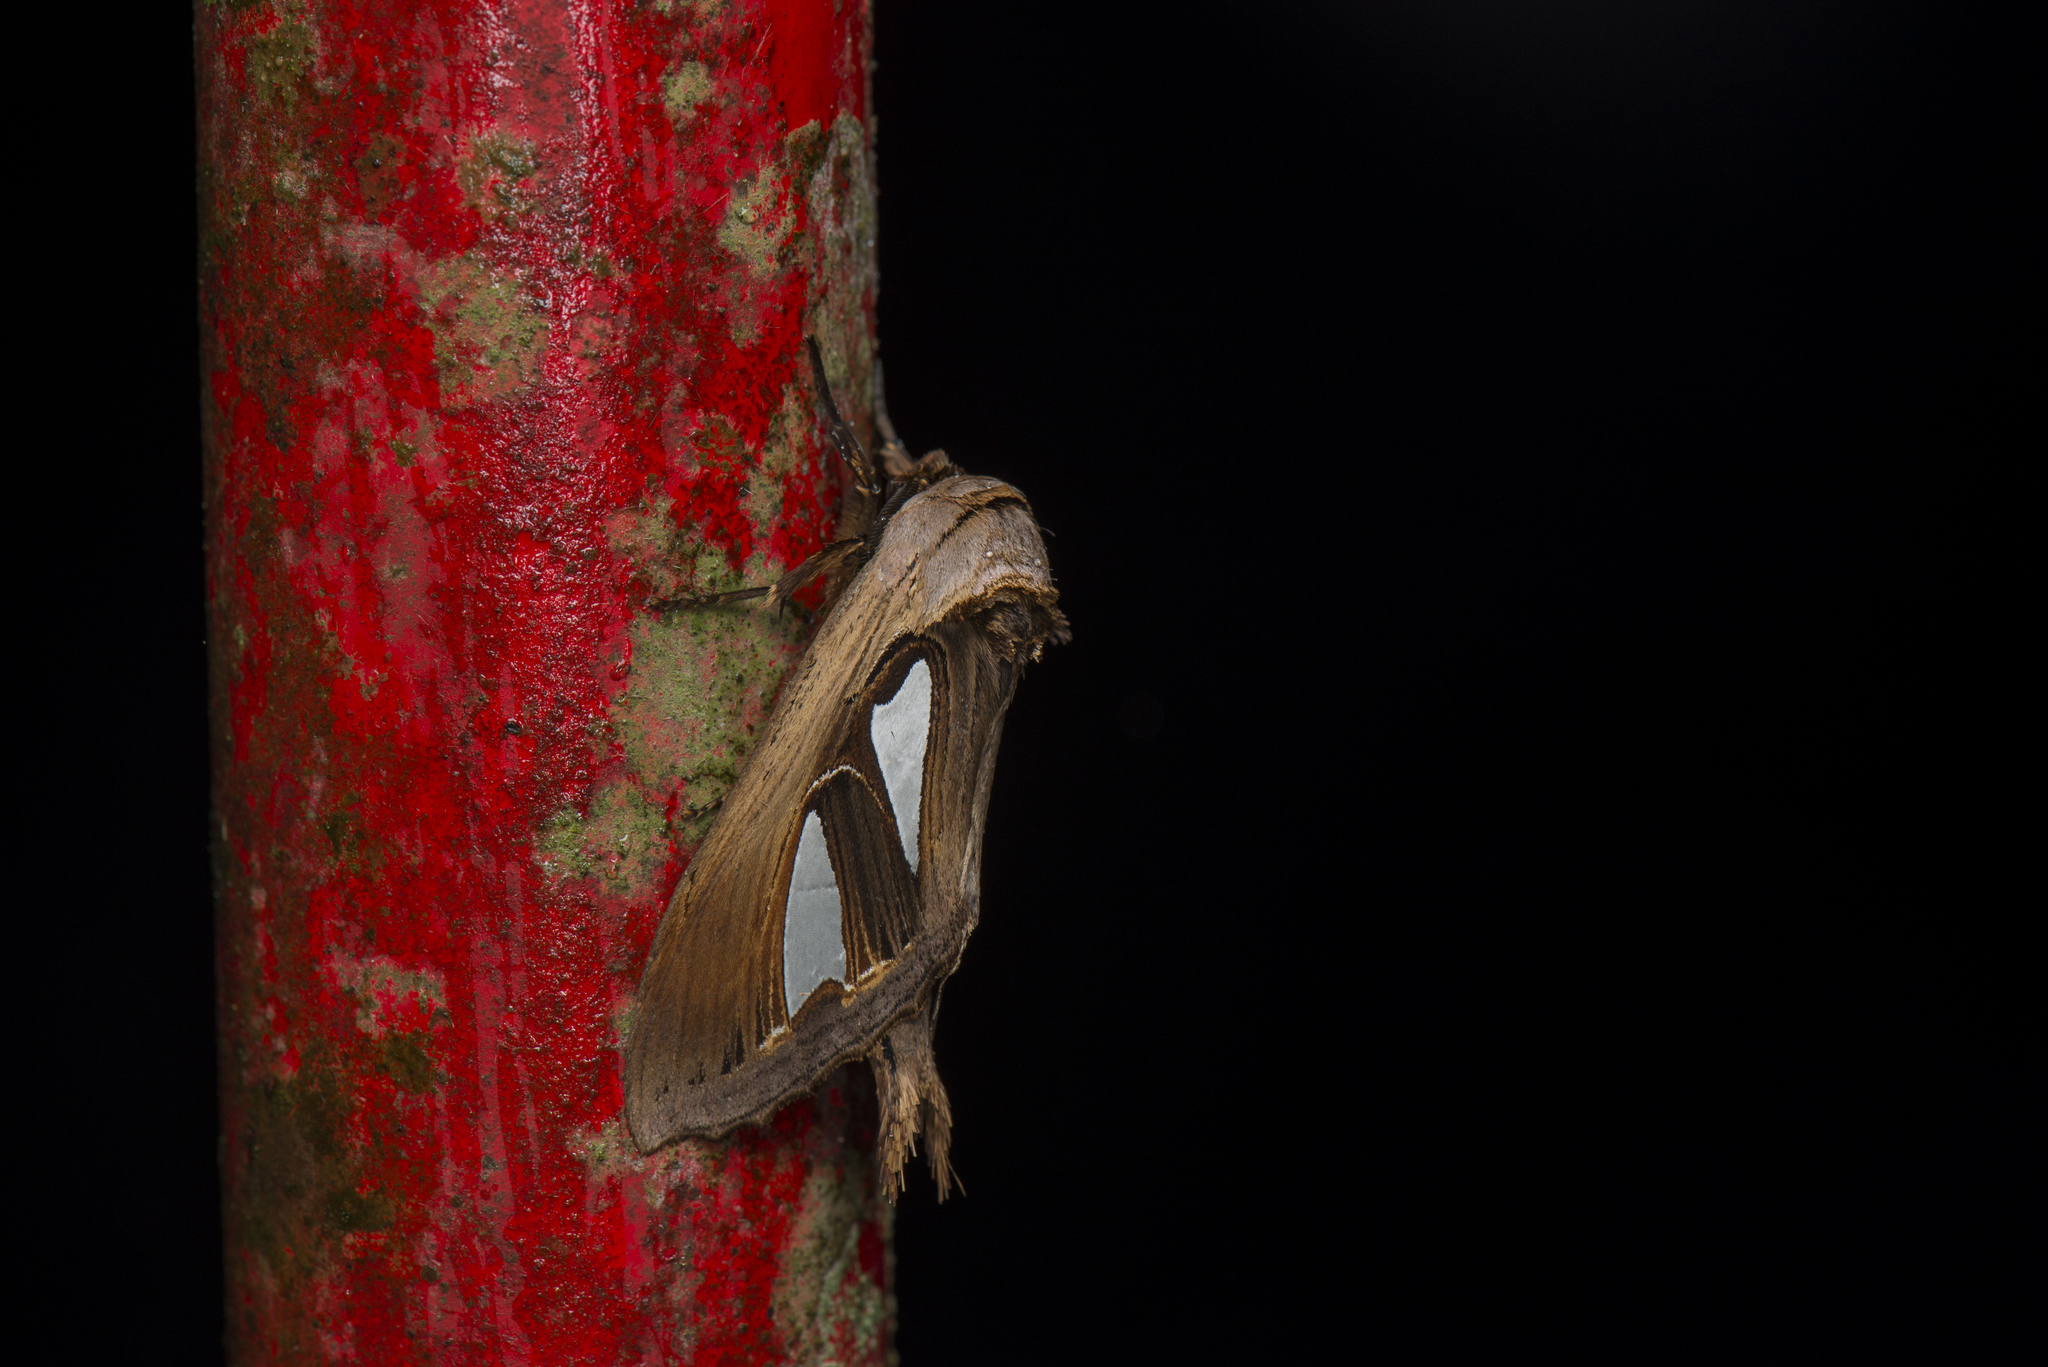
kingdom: Animalia
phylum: Arthropoda
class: Insecta
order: Lepidoptera
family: Notodontidae
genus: Tarsolepis
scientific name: Tarsolepis japonica
